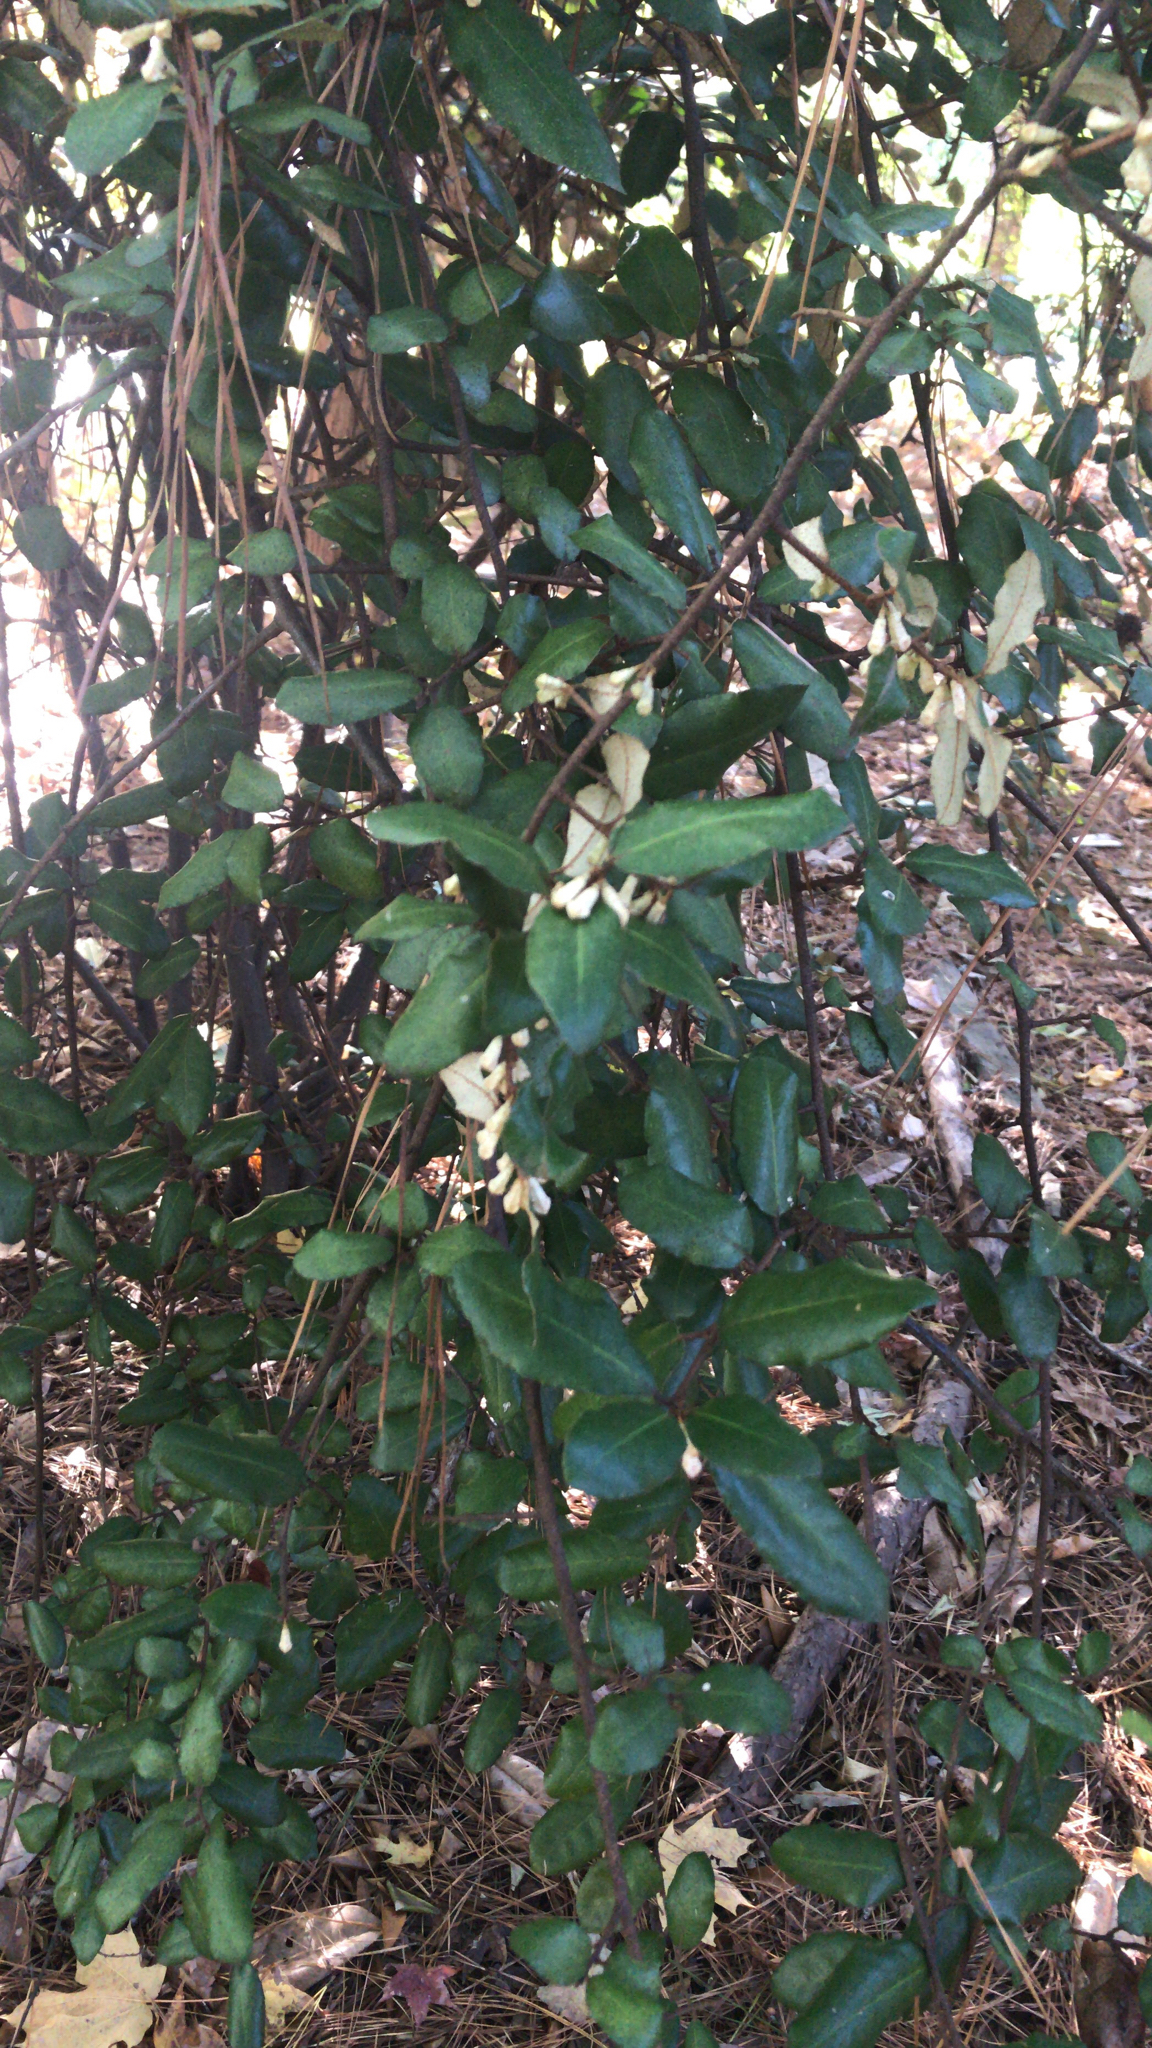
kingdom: Plantae
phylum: Tracheophyta
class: Magnoliopsida
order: Rosales
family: Elaeagnaceae
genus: Elaeagnus
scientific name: Elaeagnus pungens
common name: Spiny oleaster
